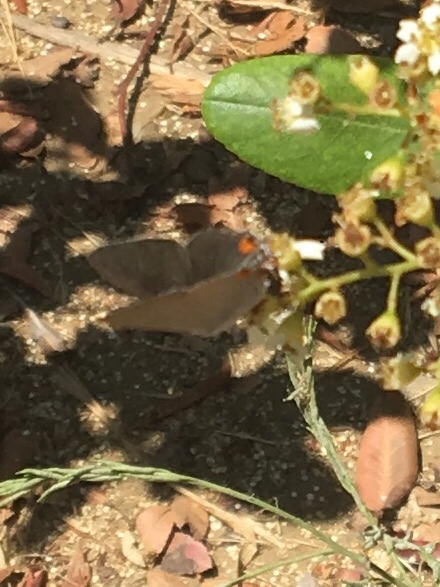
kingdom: Animalia
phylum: Arthropoda
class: Insecta
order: Lepidoptera
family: Lycaenidae
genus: Strymon
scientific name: Strymon melinus
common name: Gray hairstreak
